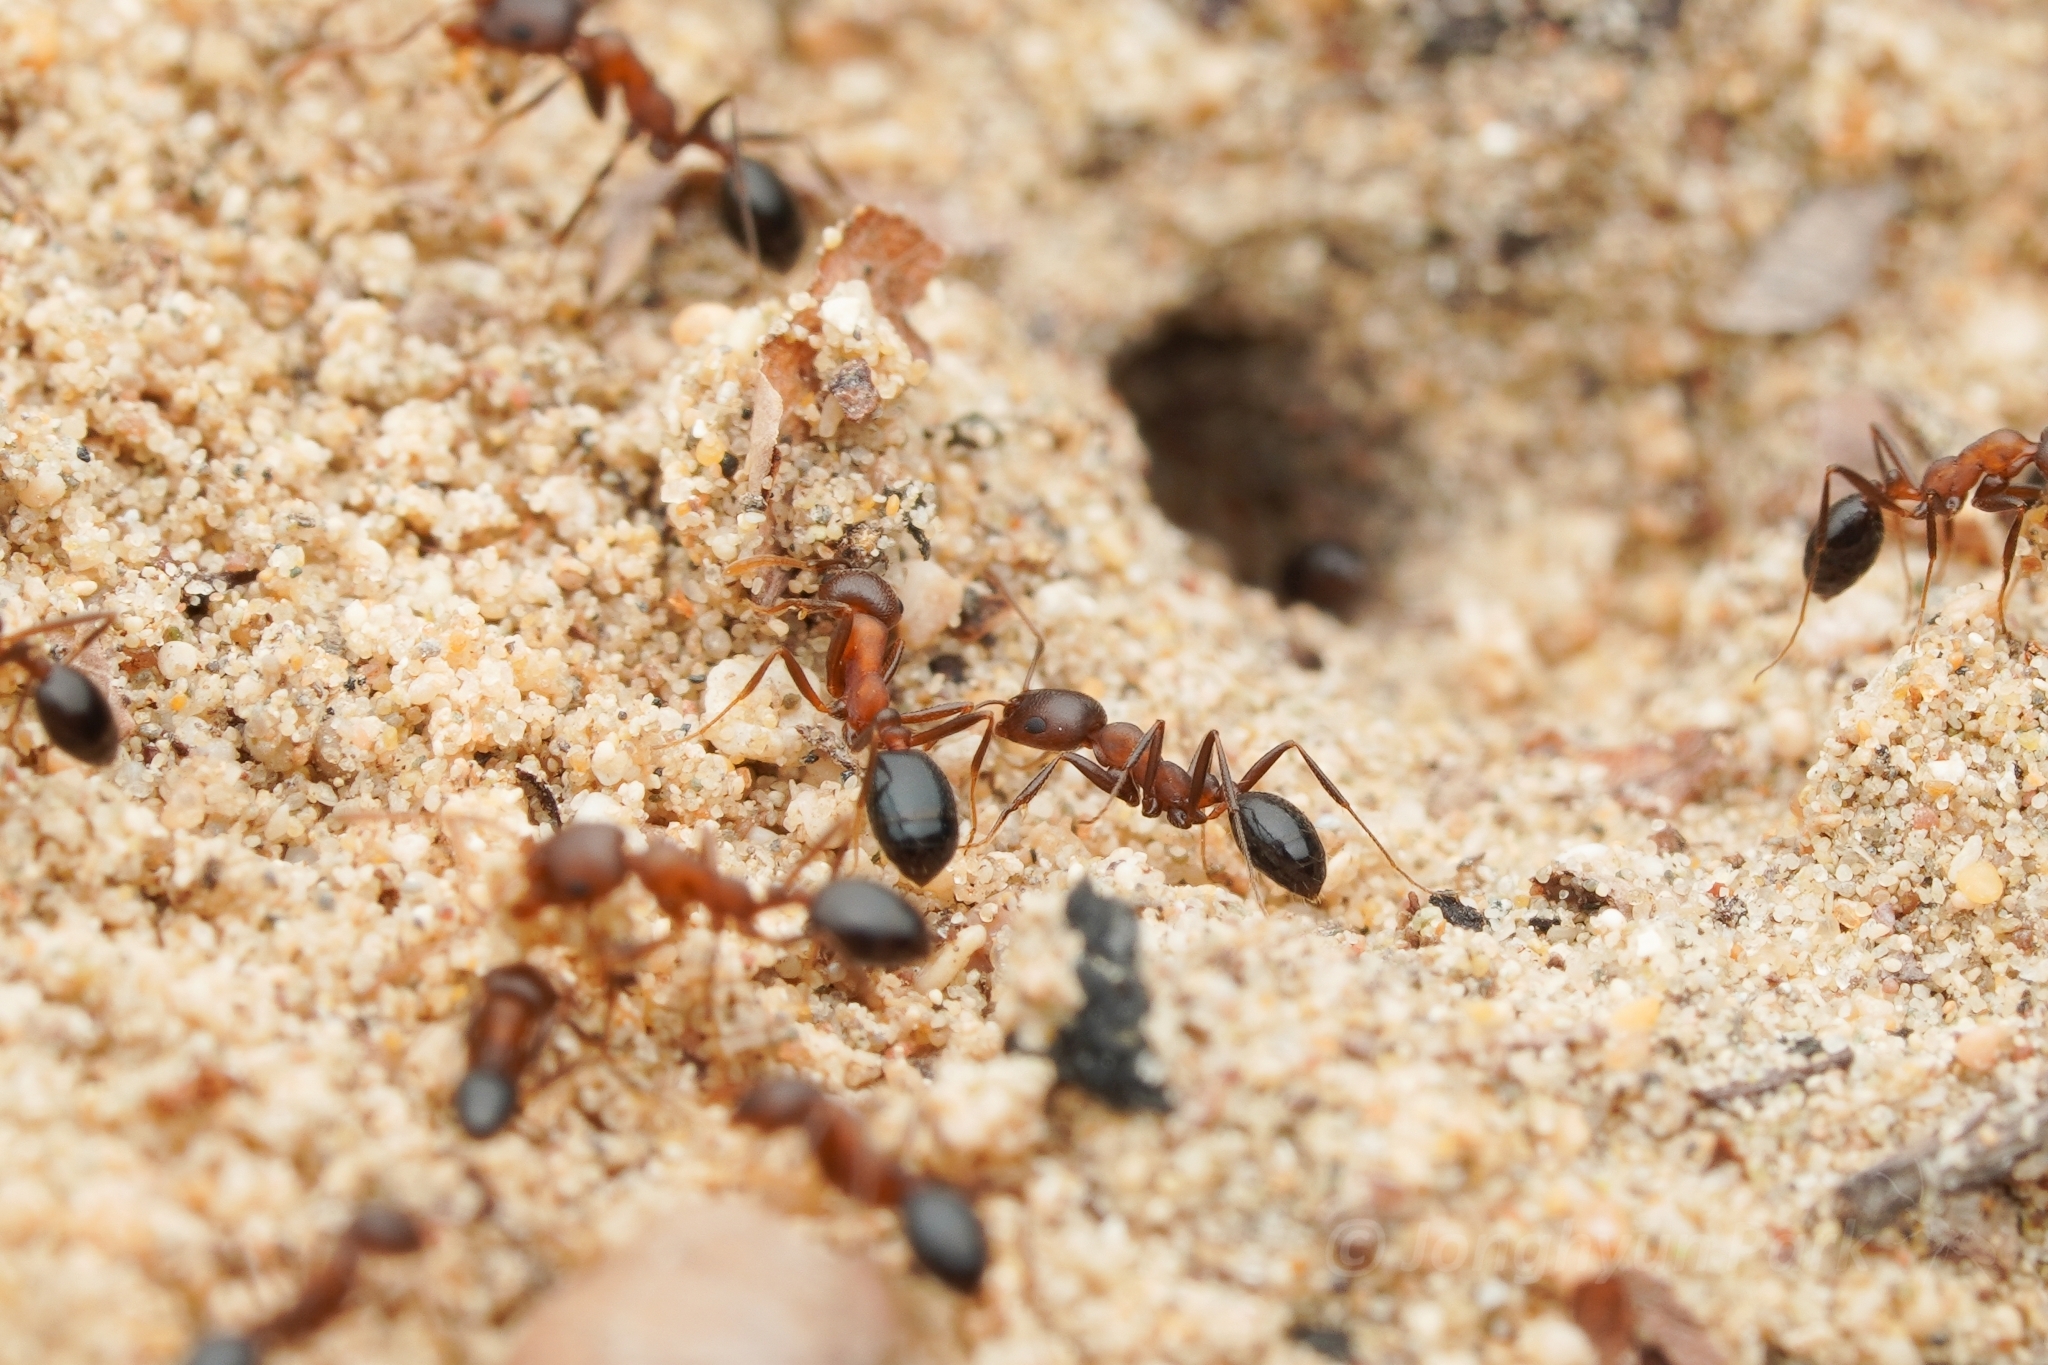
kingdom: Animalia
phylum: Arthropoda
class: Insecta
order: Hymenoptera
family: Formicidae
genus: Monomorium
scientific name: Monomorium subopacum
